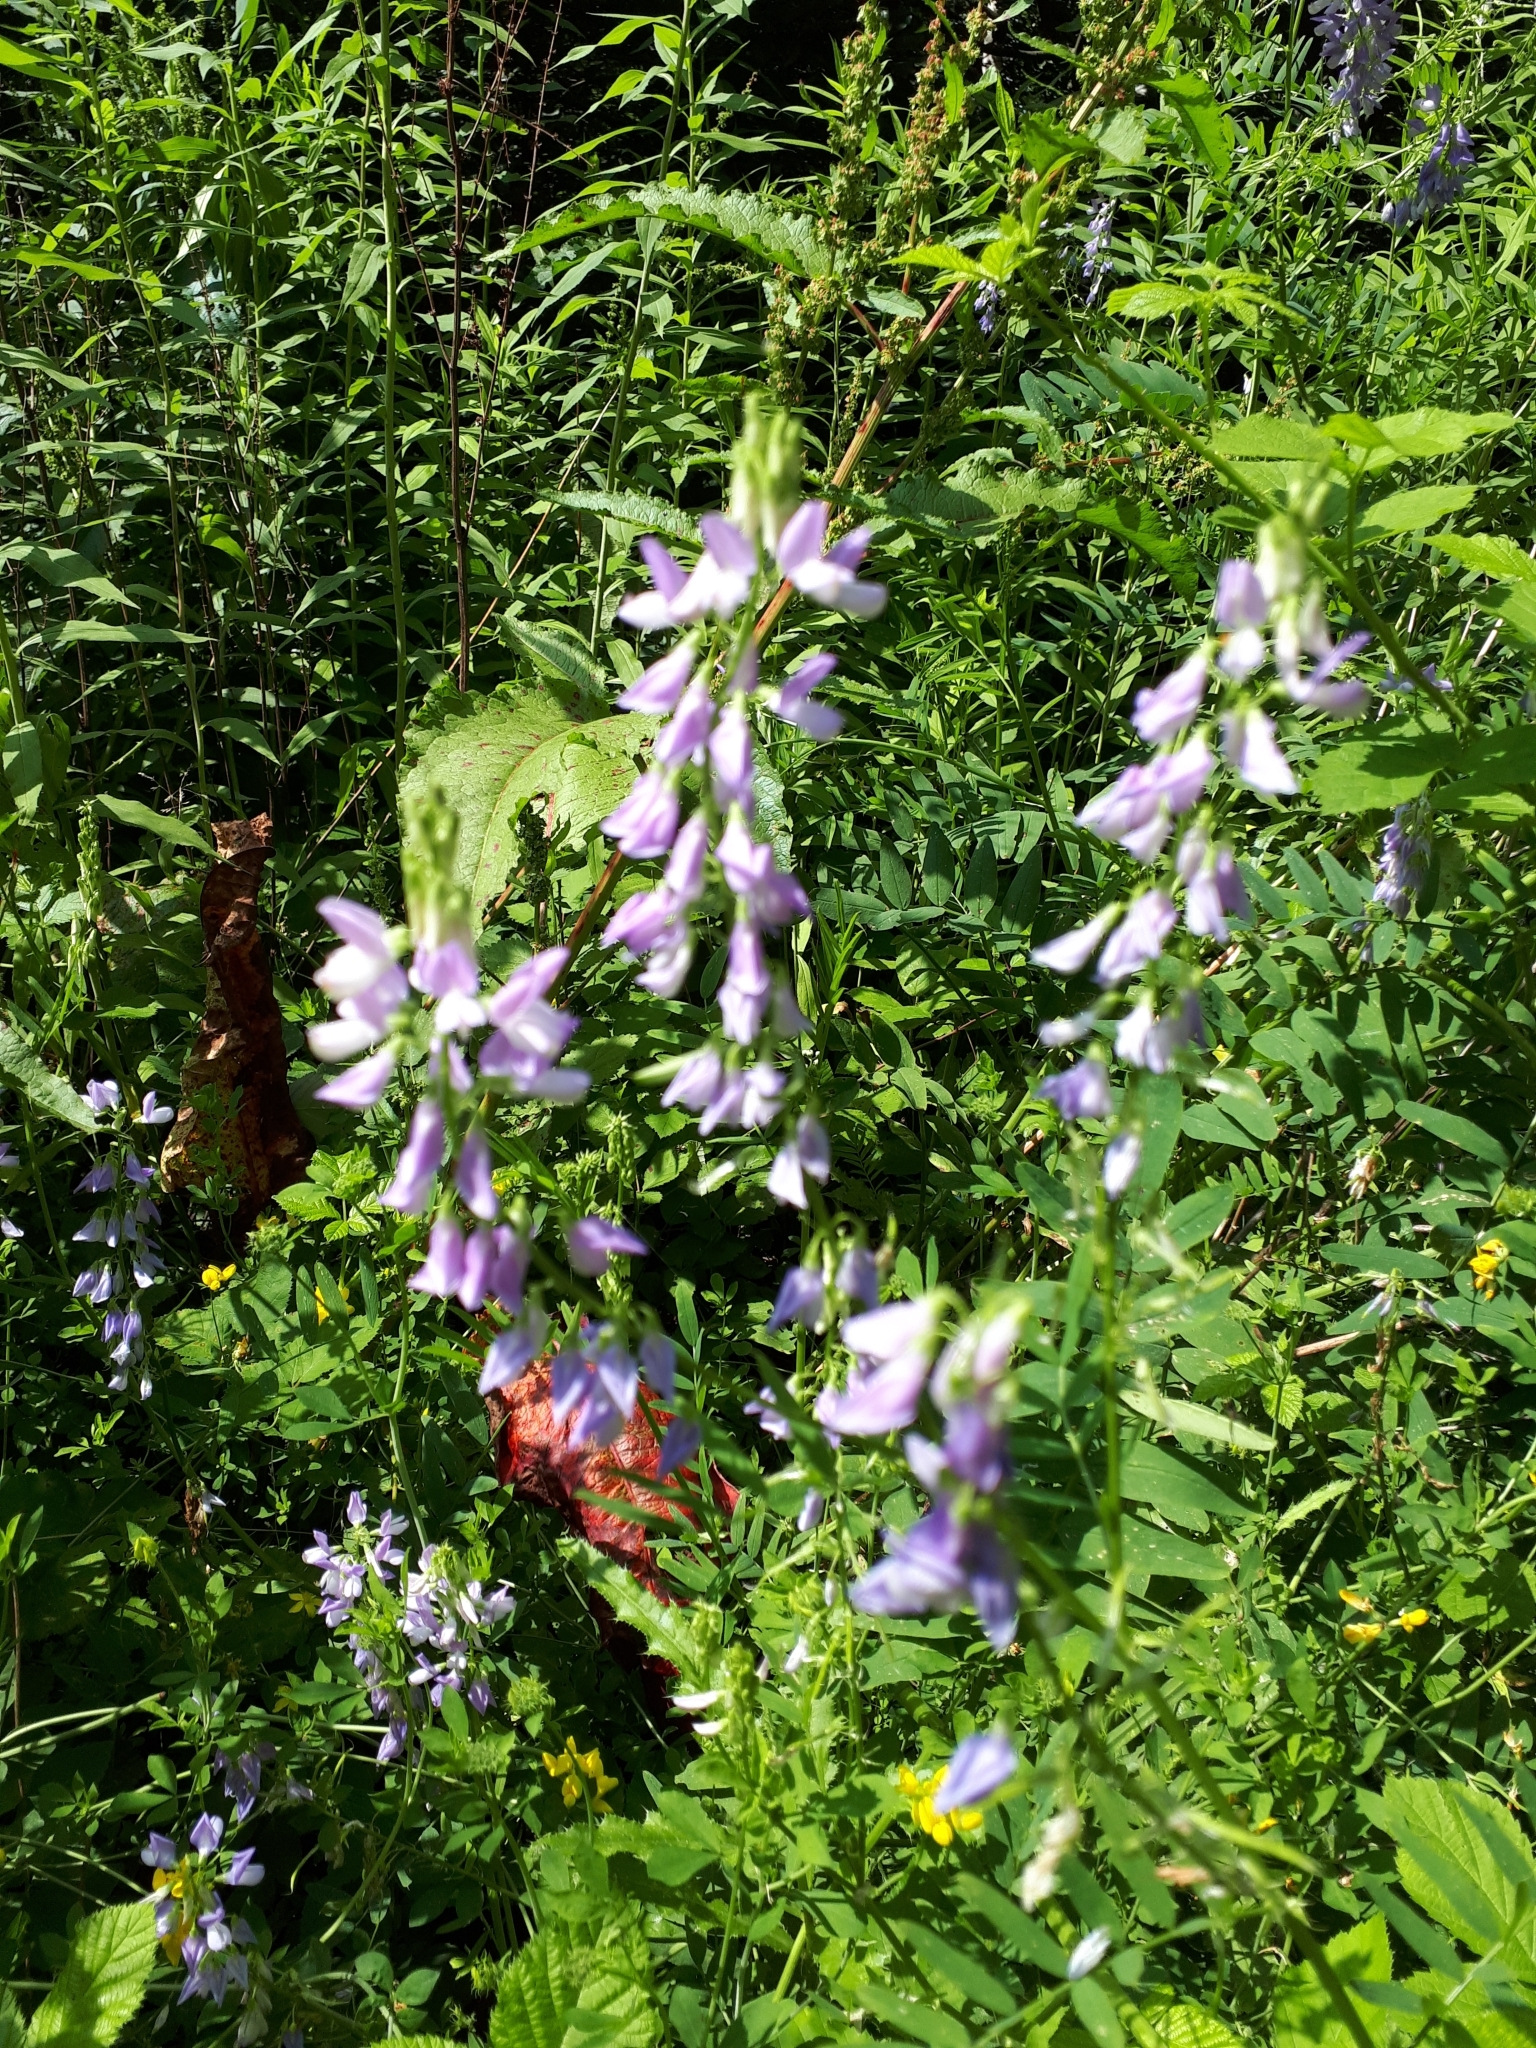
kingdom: Plantae
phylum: Tracheophyta
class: Magnoliopsida
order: Fabales
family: Fabaceae
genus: Galega
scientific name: Galega officinalis
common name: Goat's-rue
